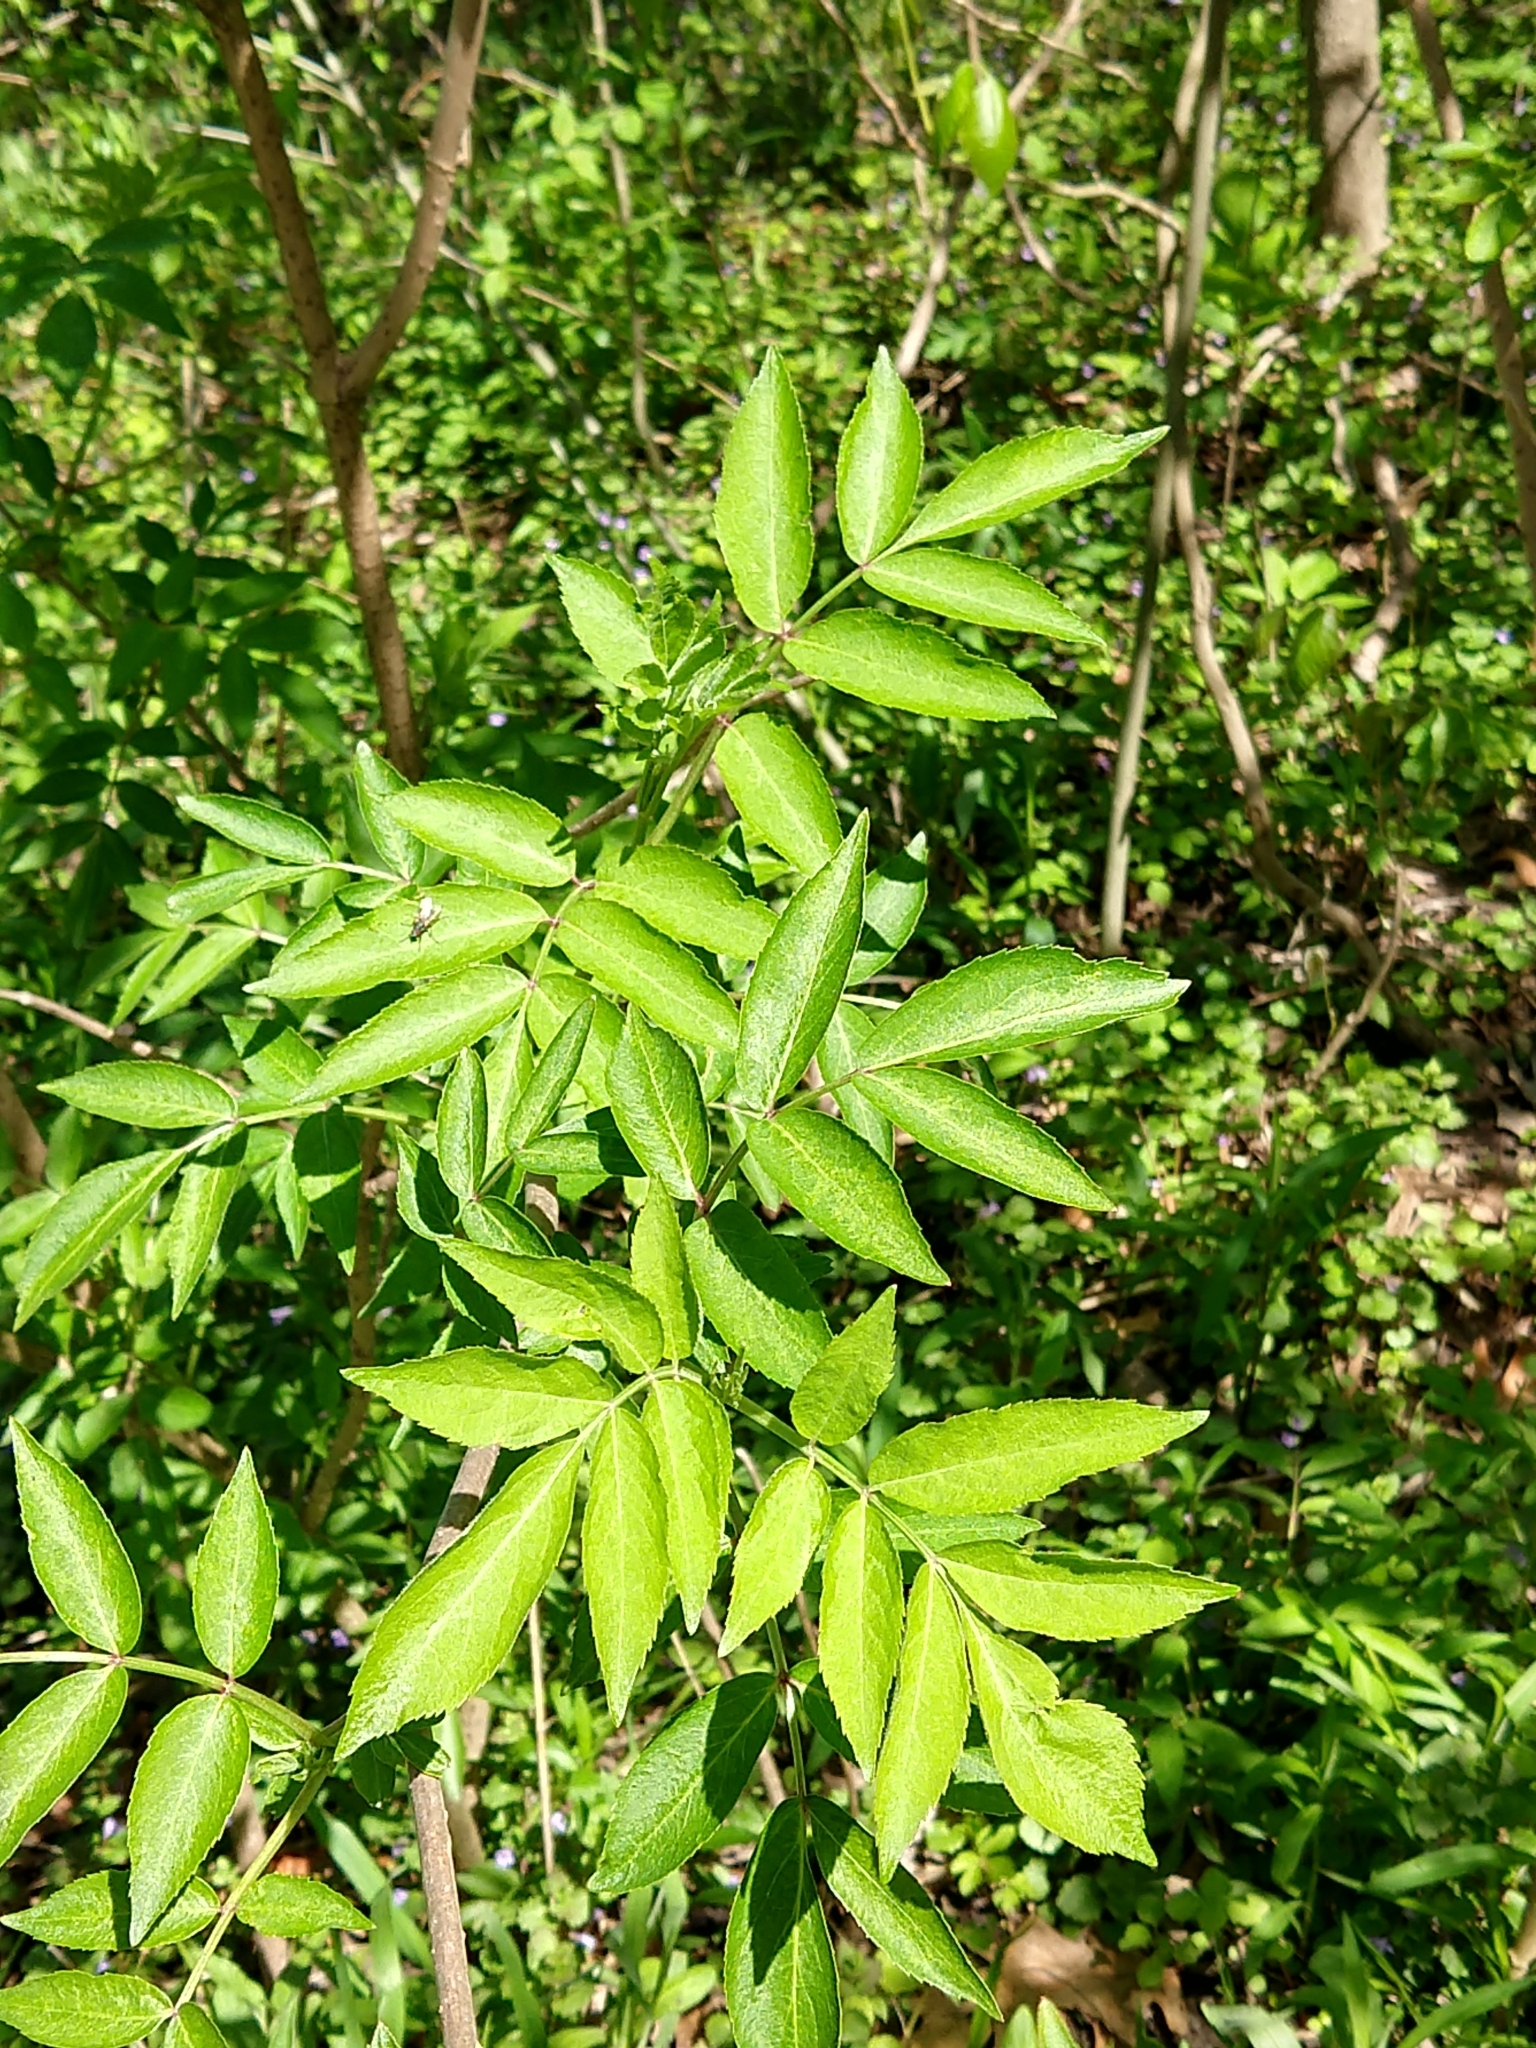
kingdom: Plantae
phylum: Tracheophyta
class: Magnoliopsida
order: Dipsacales
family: Viburnaceae
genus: Sambucus
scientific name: Sambucus canadensis
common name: American elder
